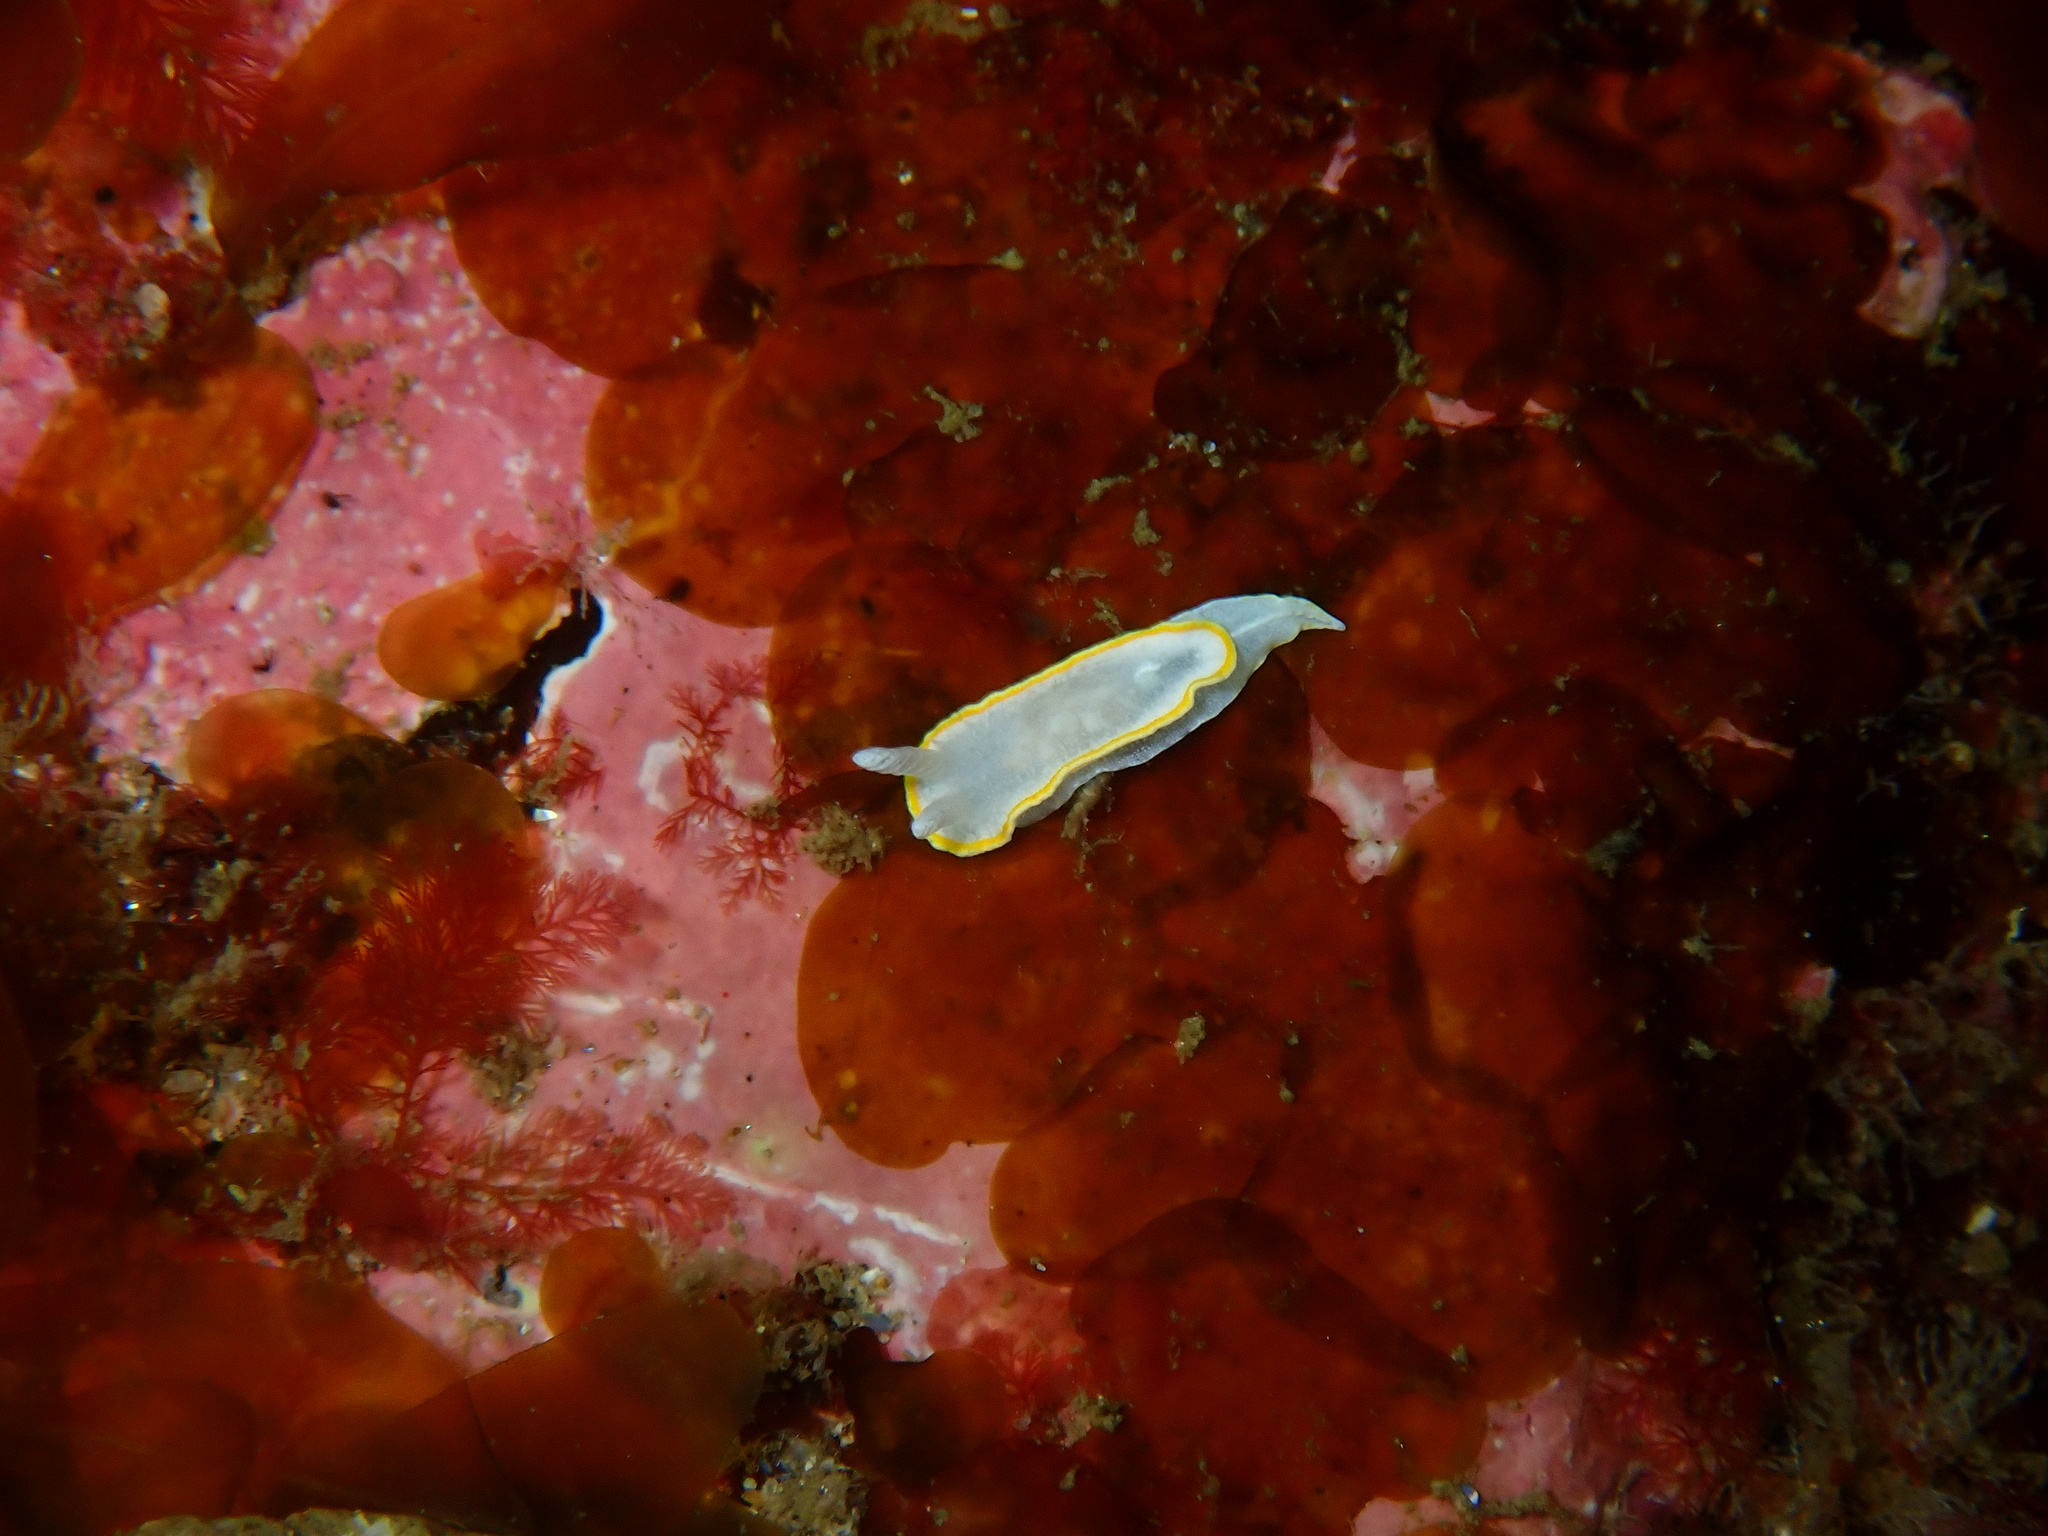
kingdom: Animalia
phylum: Mollusca
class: Gastropoda
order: Nudibranchia
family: Calycidorididae
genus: Diaphorodoris
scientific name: Diaphorodoris alba
